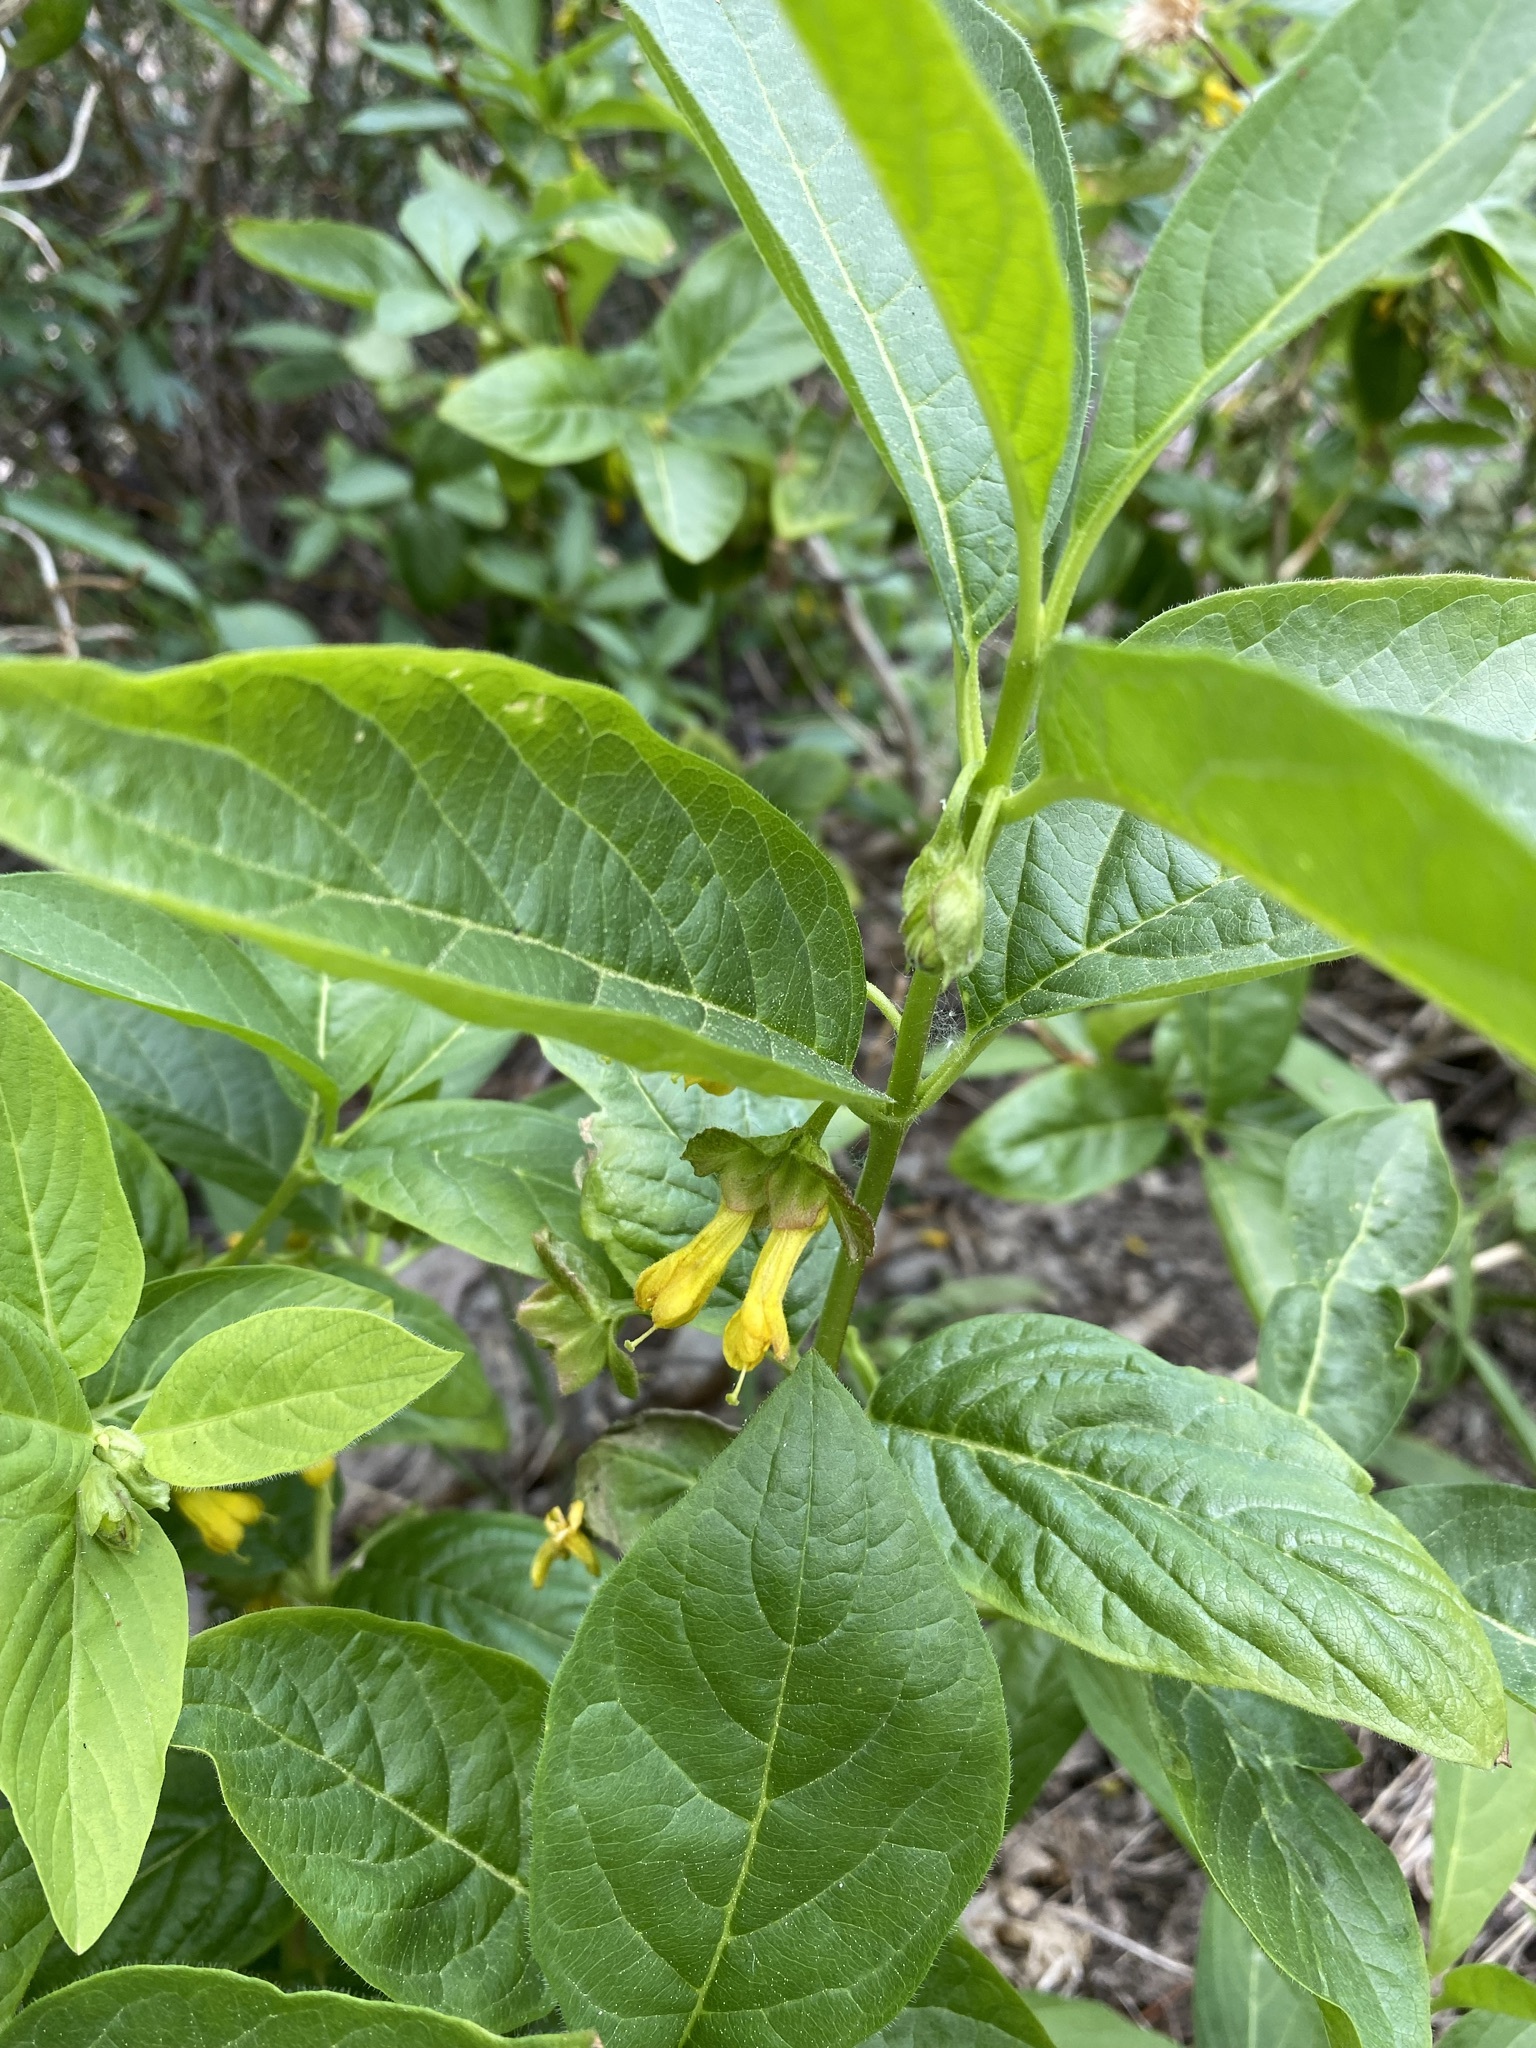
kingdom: Plantae
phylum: Tracheophyta
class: Magnoliopsida
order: Dipsacales
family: Caprifoliaceae
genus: Lonicera
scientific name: Lonicera involucrata
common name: Californian honeysuckle
